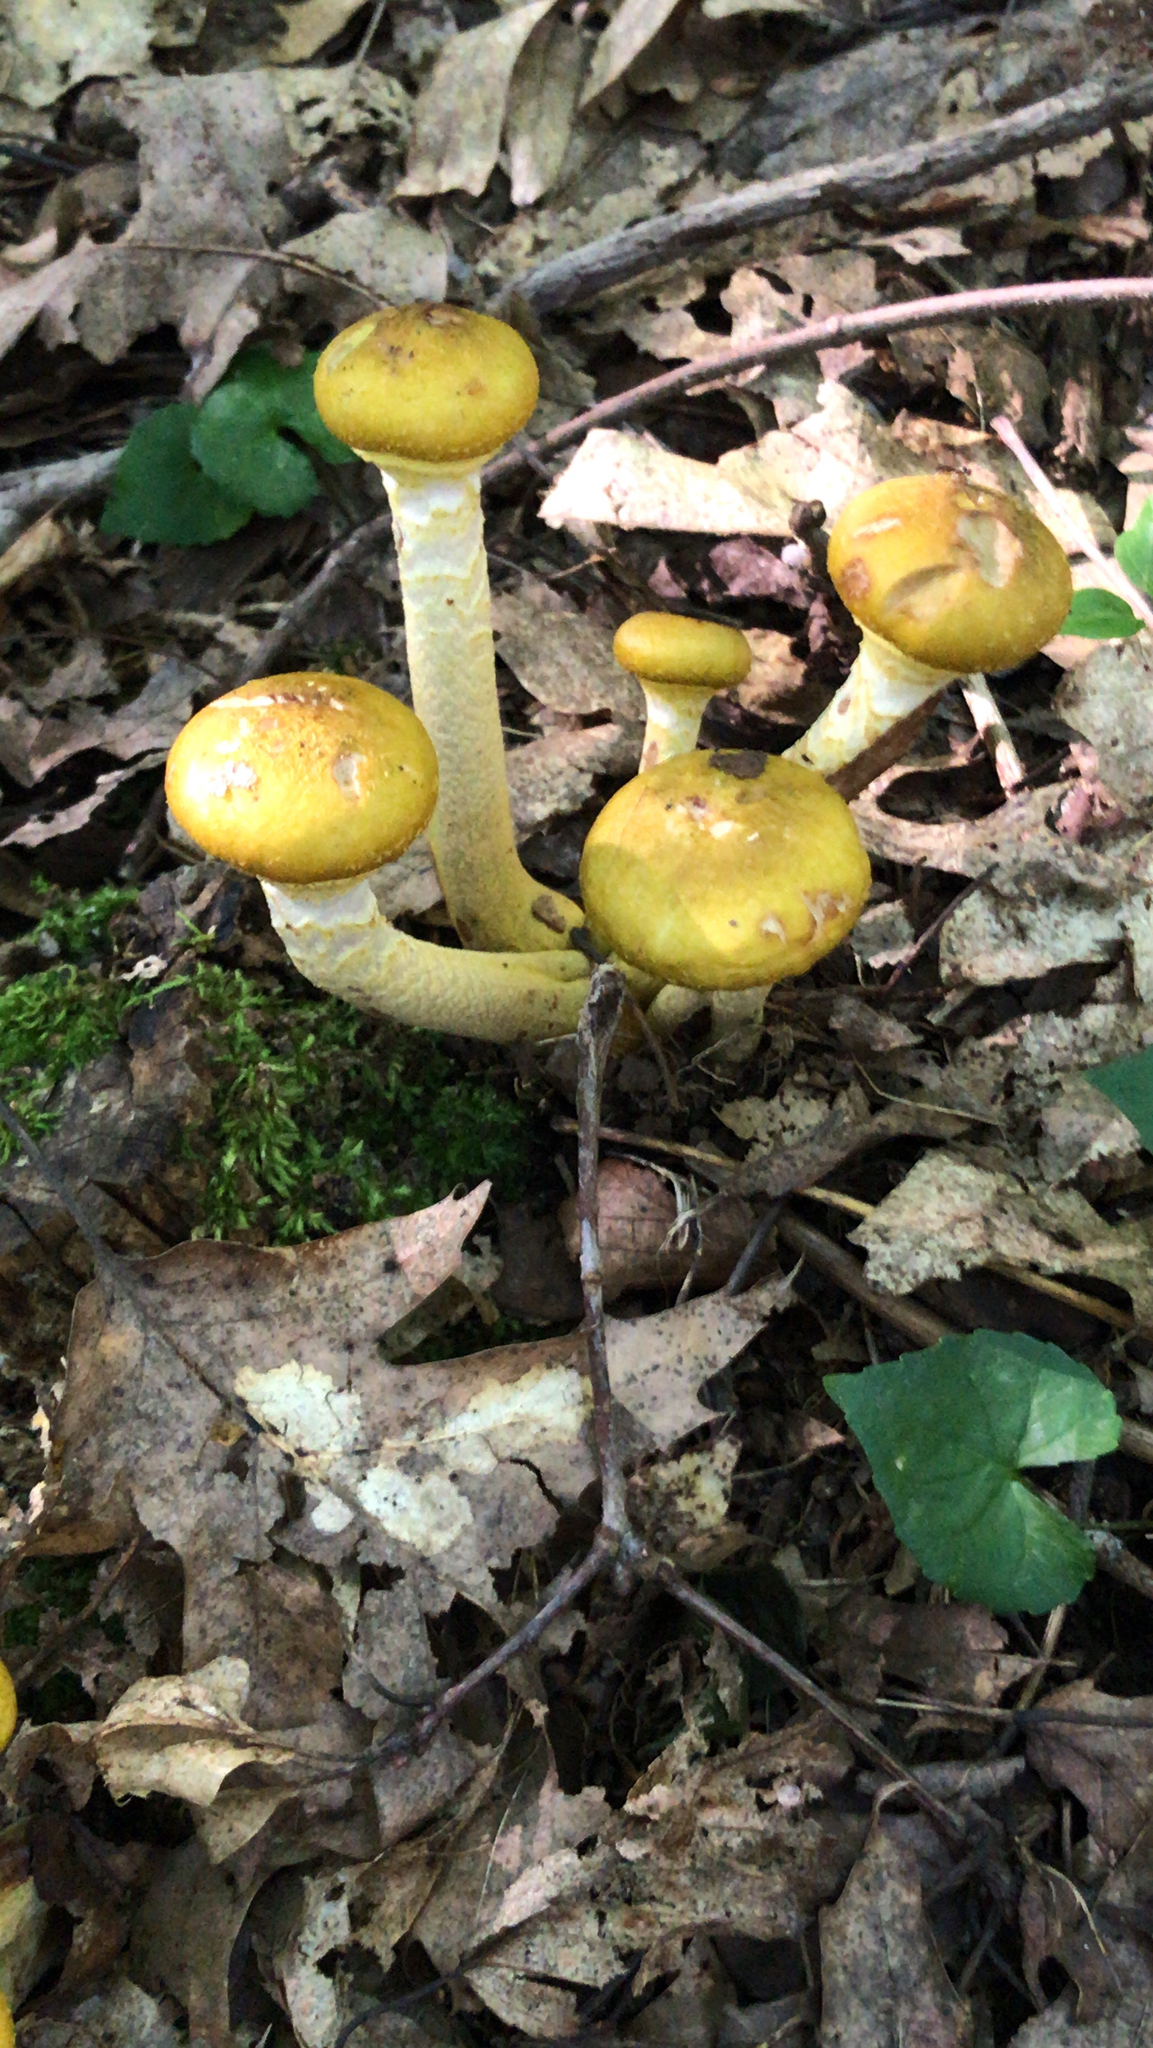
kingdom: Fungi
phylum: Basidiomycota
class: Agaricomycetes
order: Agaricales
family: Physalacriaceae
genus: Armillaria
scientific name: Armillaria mellea
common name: Honey fungus
